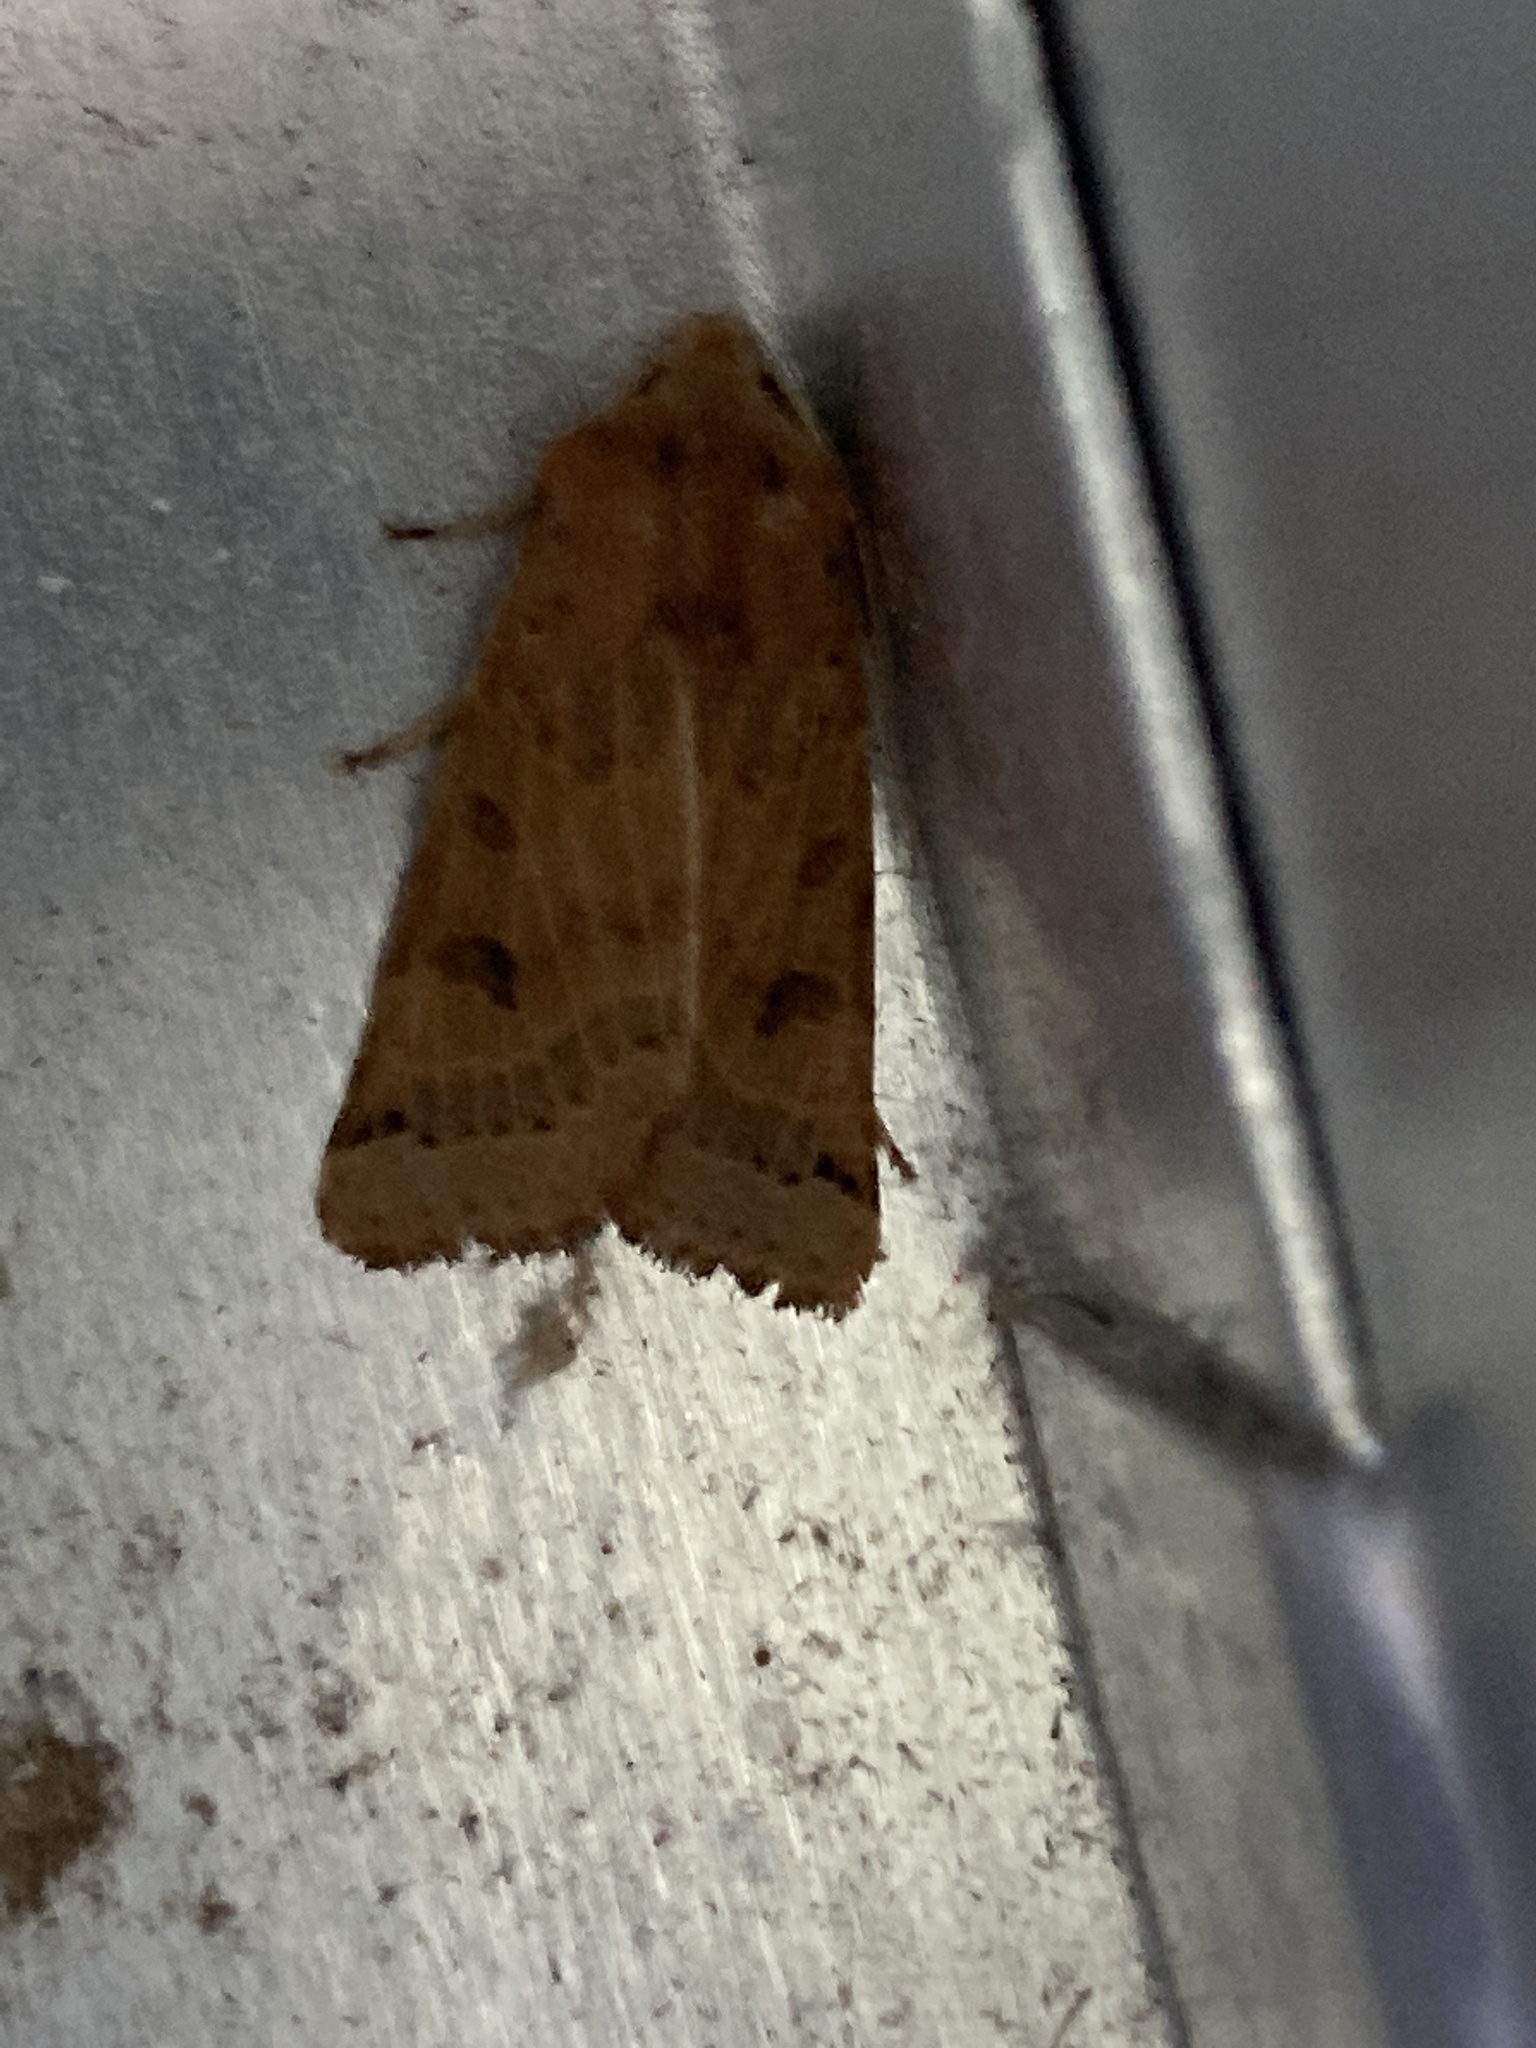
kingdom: Animalia
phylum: Arthropoda
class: Insecta
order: Lepidoptera
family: Noctuidae
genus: Agrochola
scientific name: Agrochola lunosa
